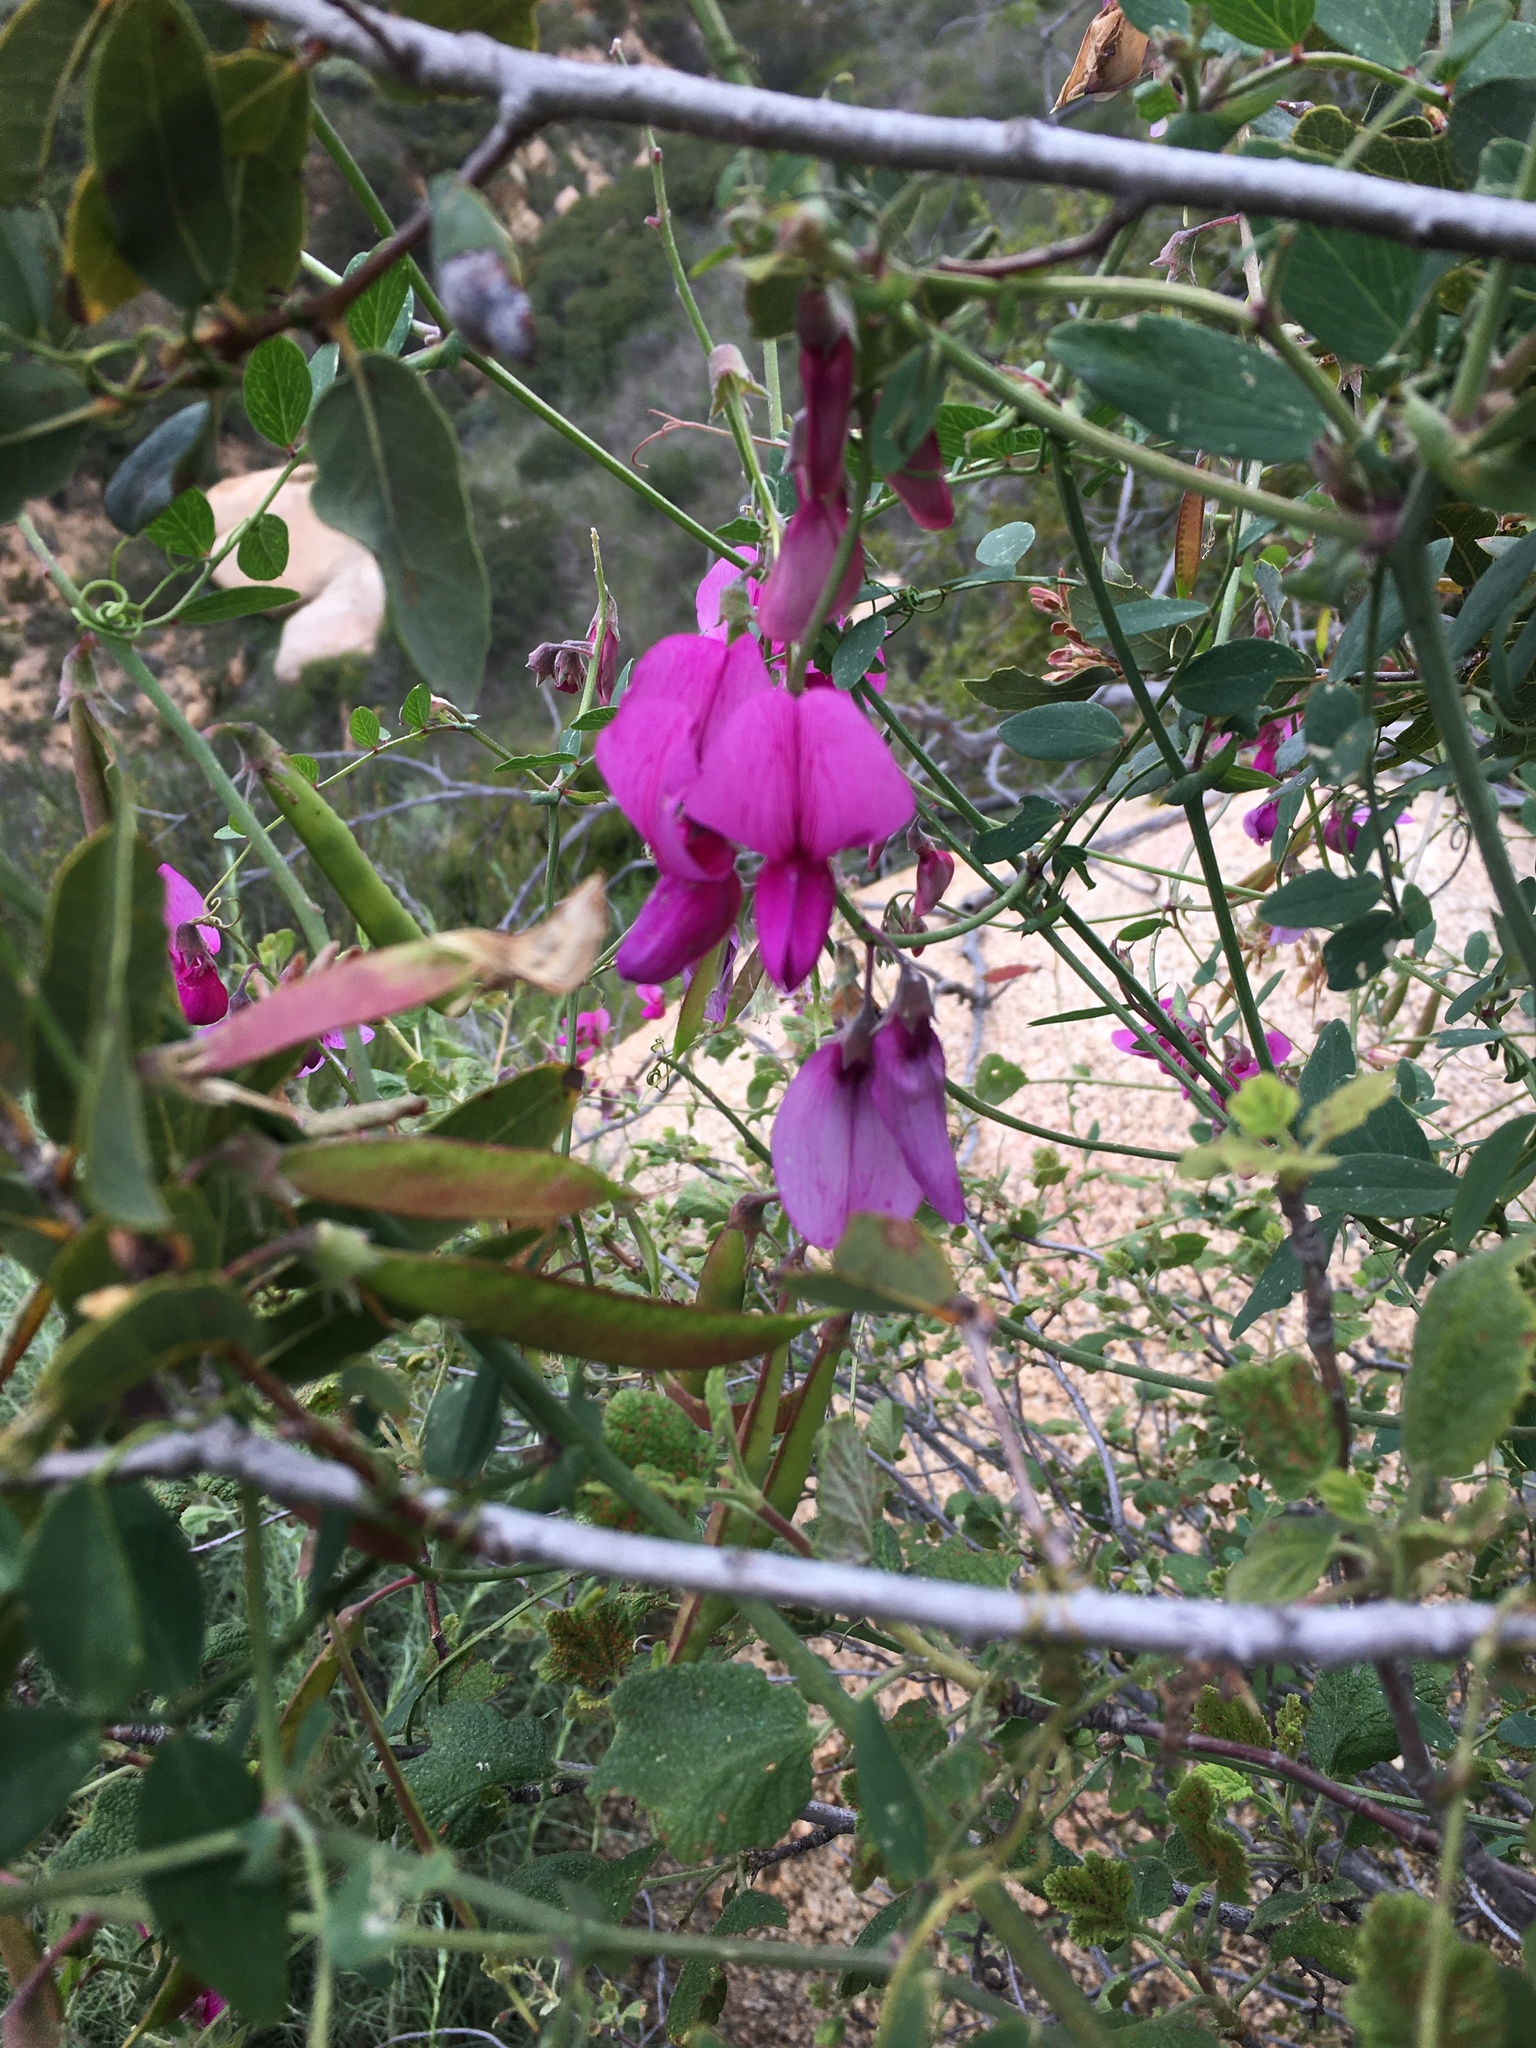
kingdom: Plantae
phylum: Tracheophyta
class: Magnoliopsida
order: Fabales
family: Fabaceae
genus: Lathyrus
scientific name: Lathyrus vestitus
